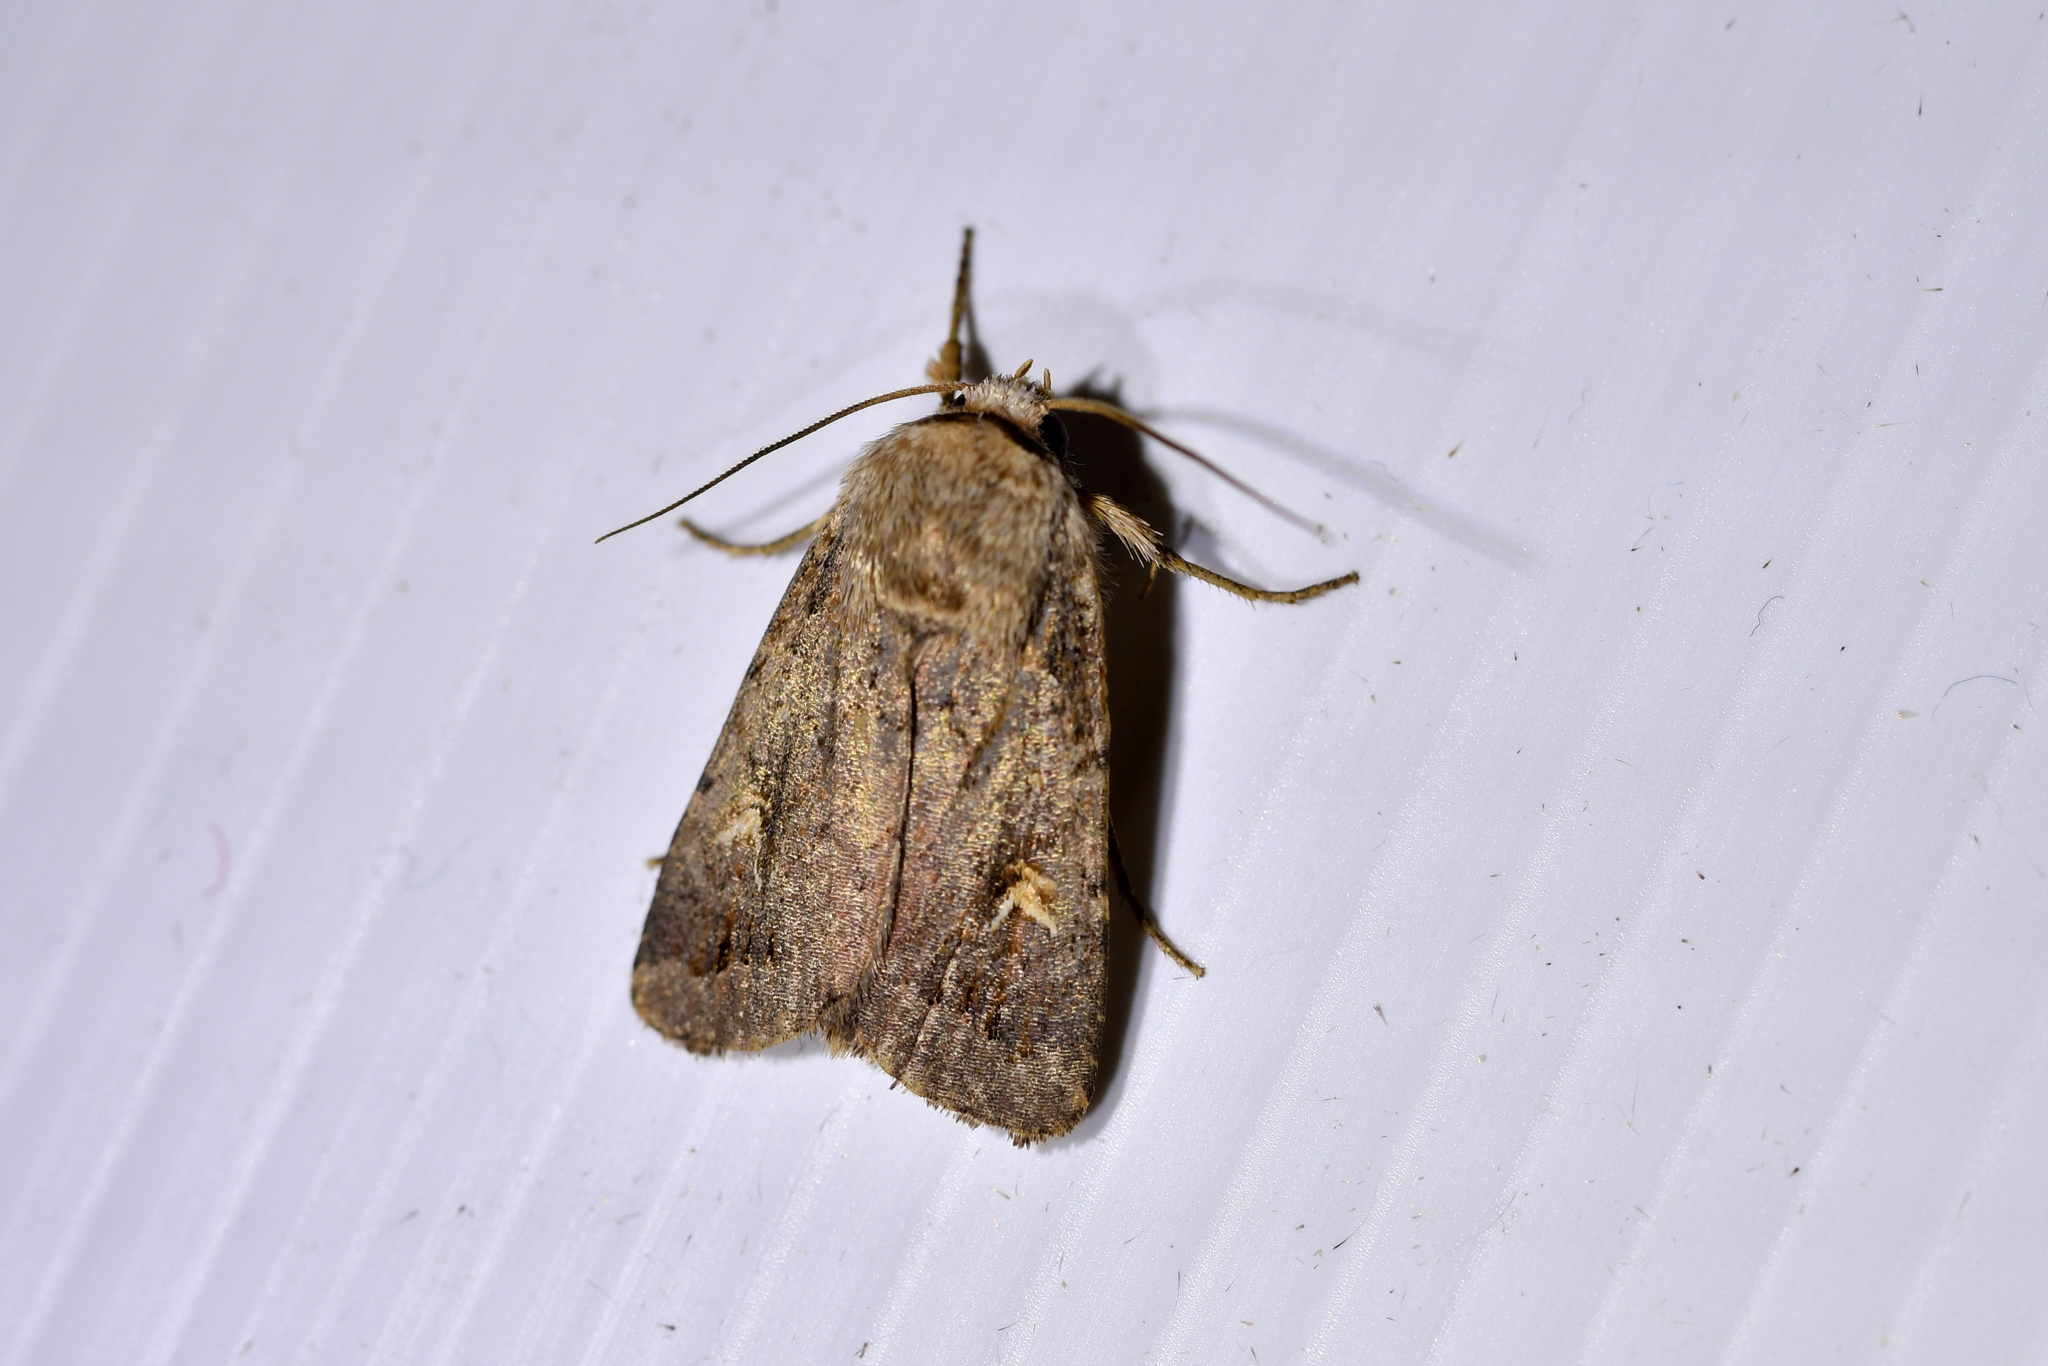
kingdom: Animalia
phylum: Arthropoda
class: Insecta
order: Lepidoptera
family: Noctuidae
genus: Proteuxoa
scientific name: Proteuxoa tetronycha
